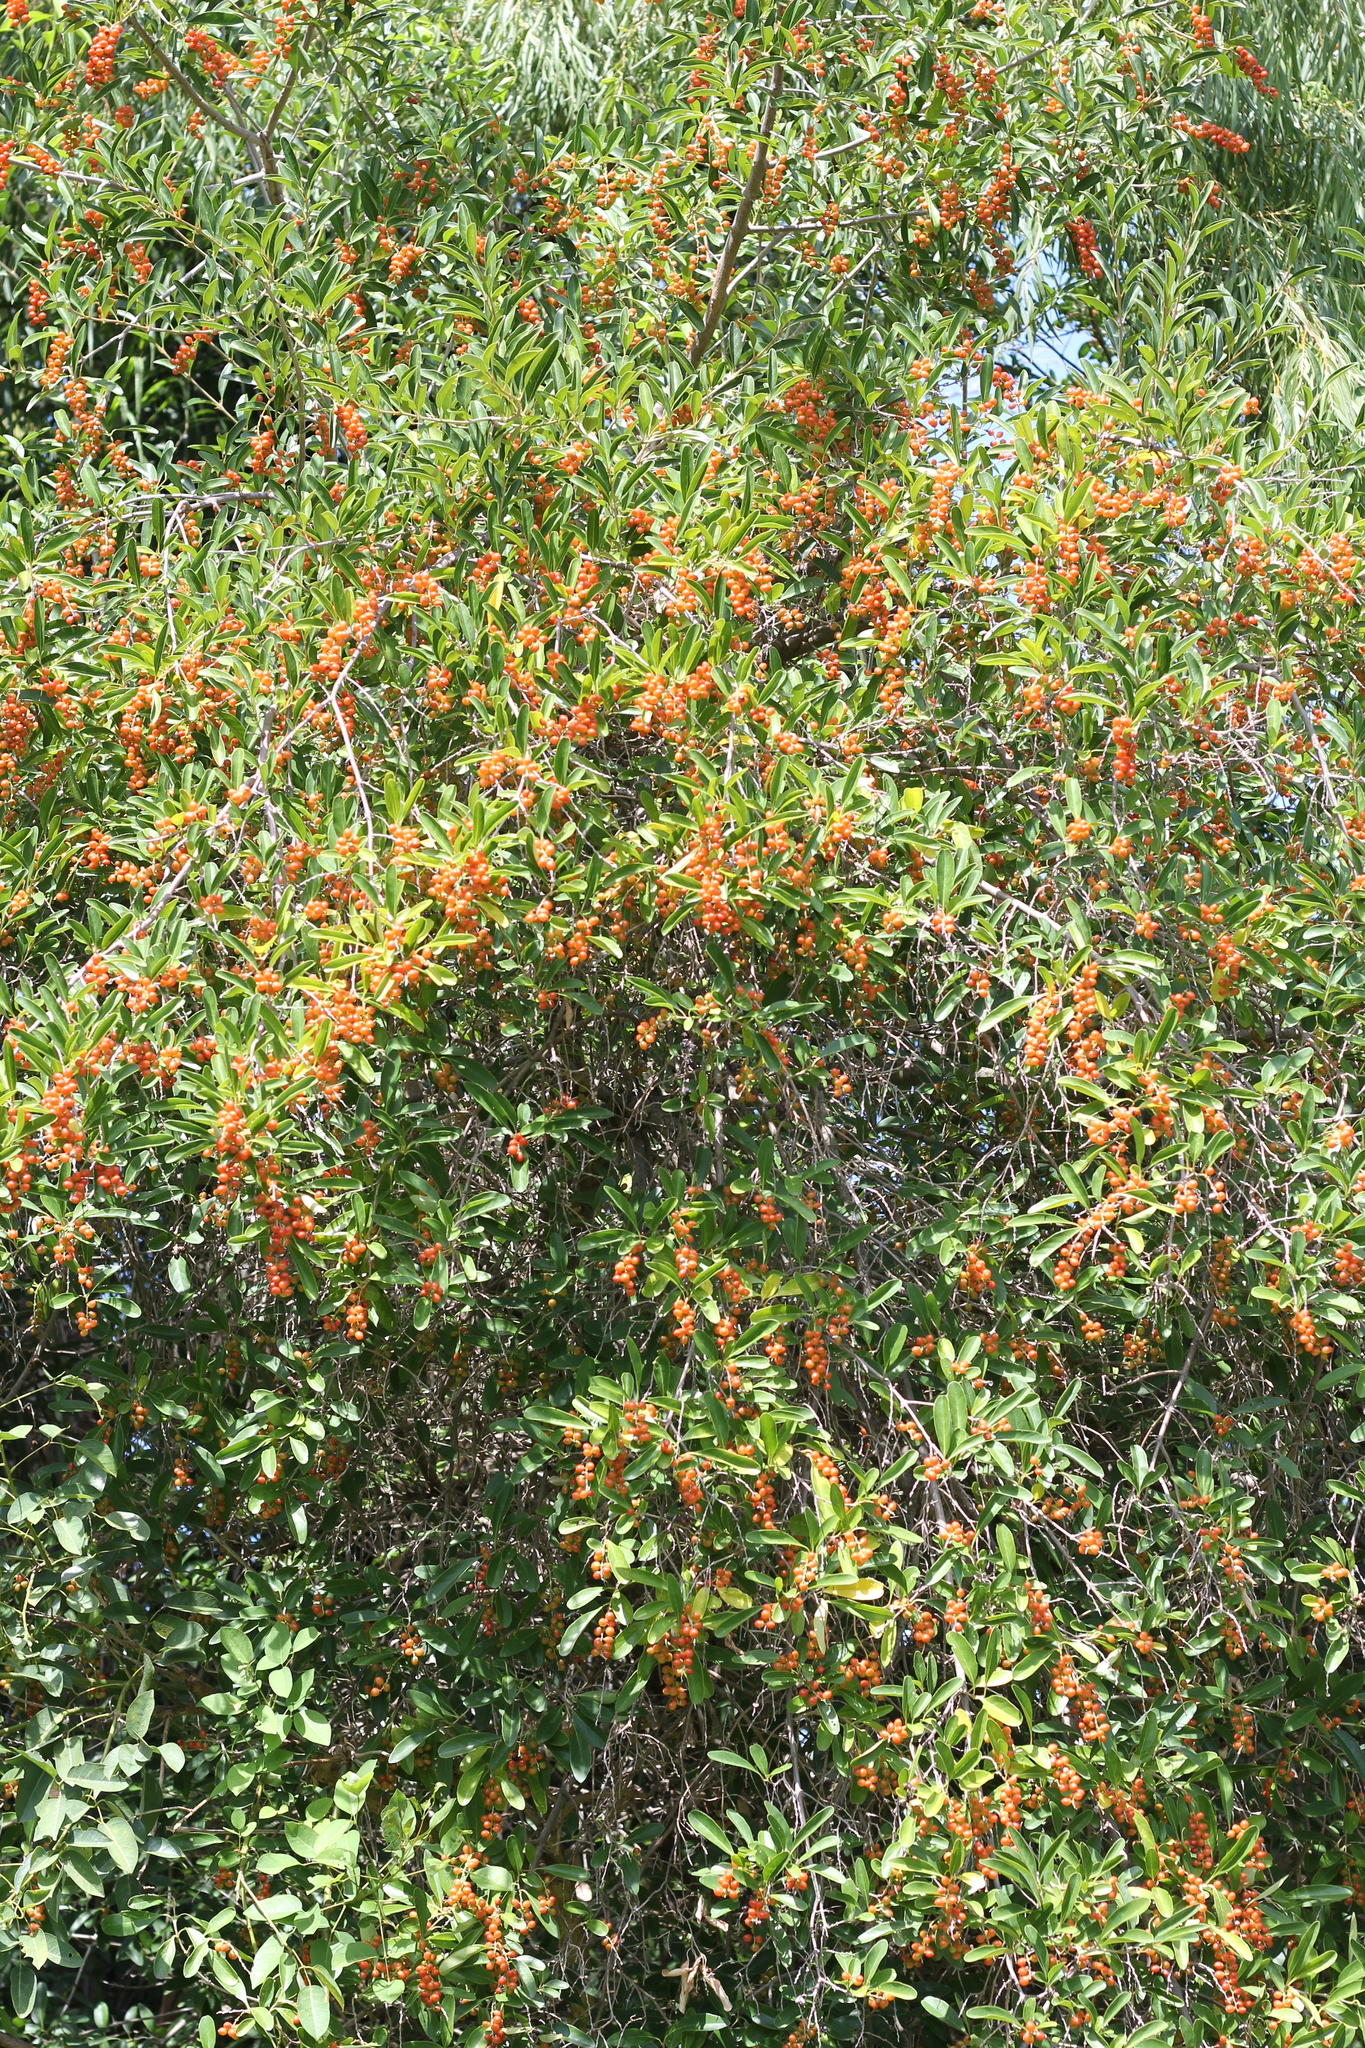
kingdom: Plantae
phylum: Tracheophyta
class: Magnoliopsida
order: Lamiales
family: Verbenaceae
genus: Citharexylum
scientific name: Citharexylum montevidense
